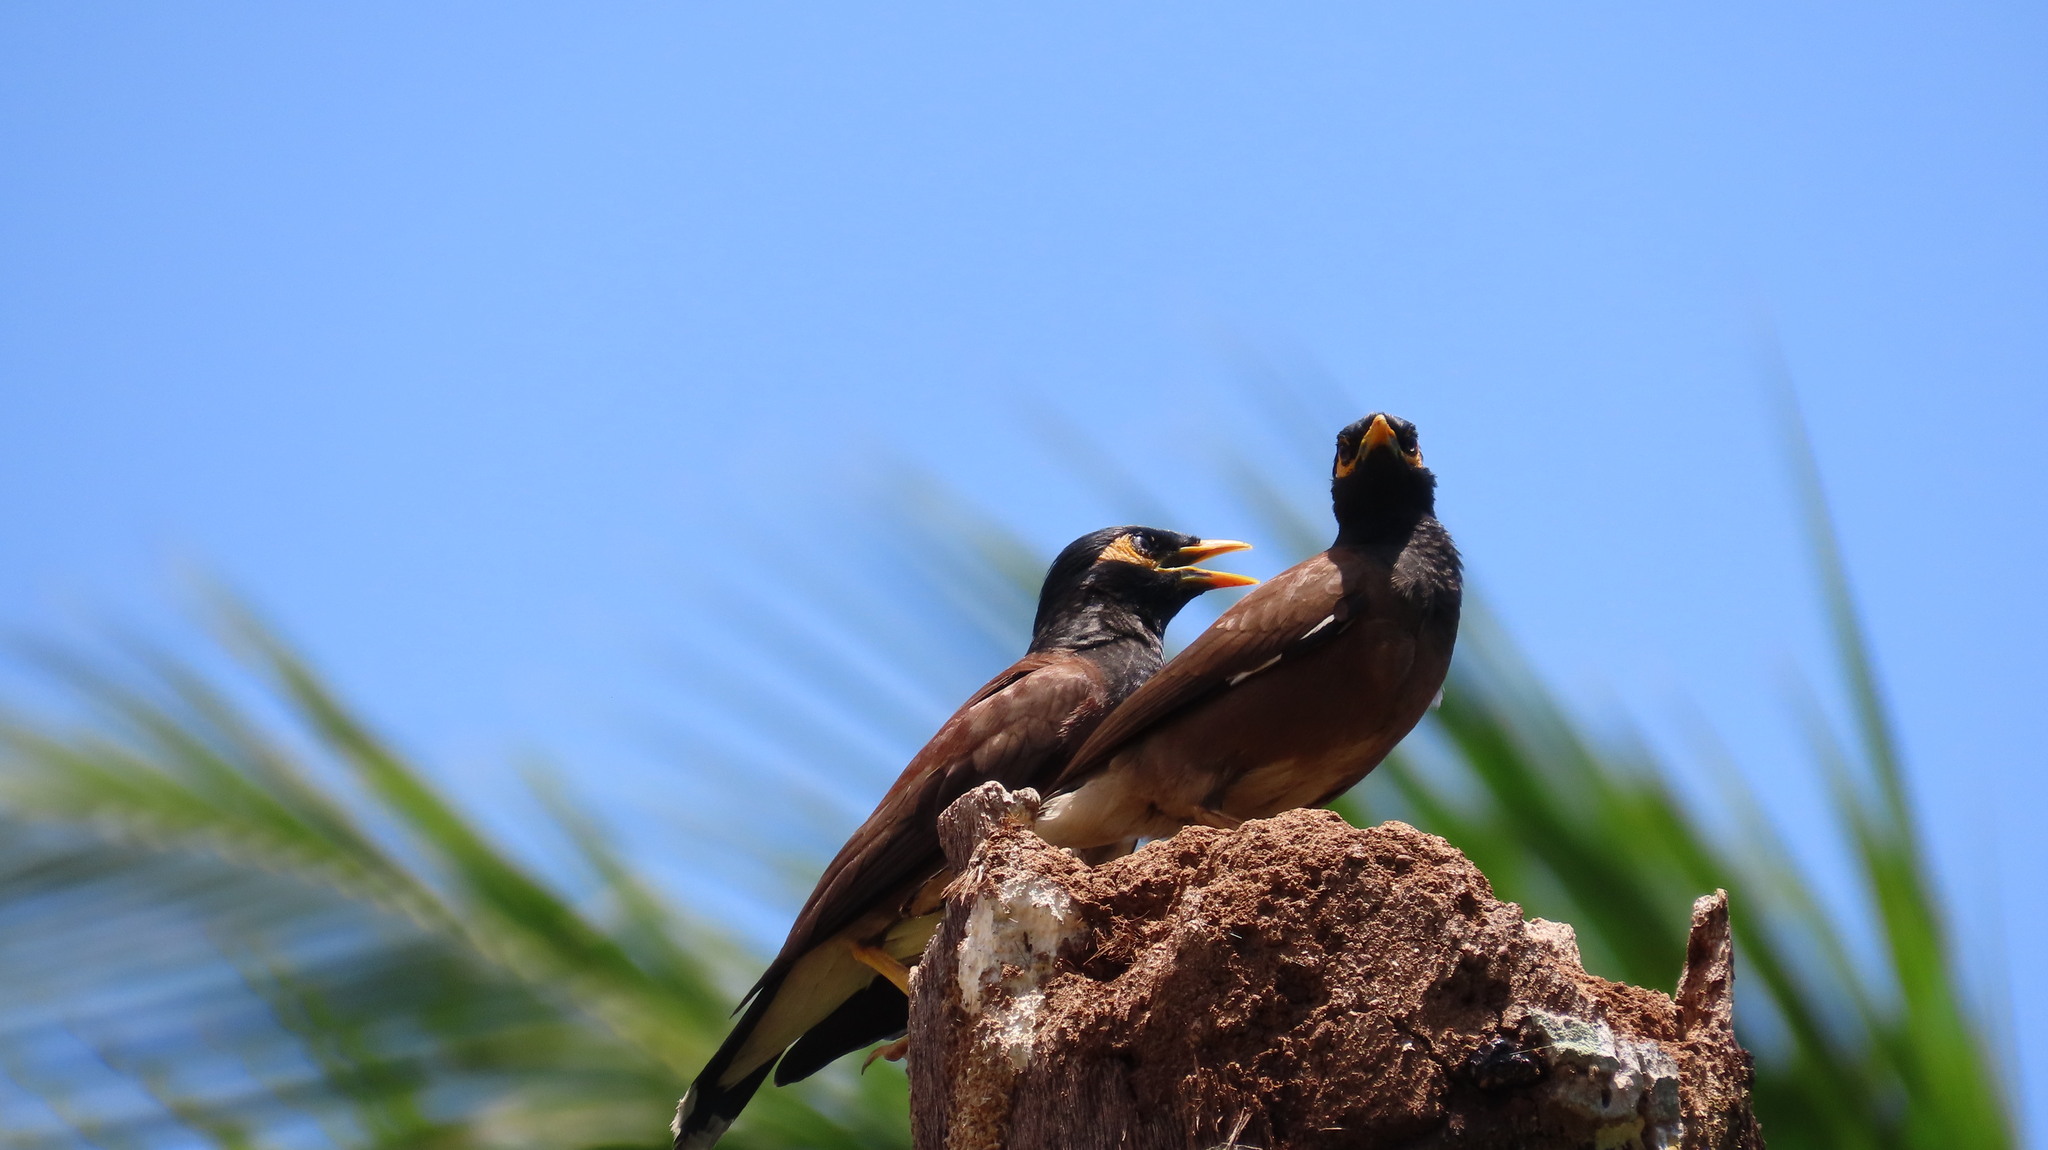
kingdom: Animalia
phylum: Chordata
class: Aves
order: Passeriformes
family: Sturnidae
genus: Acridotheres
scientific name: Acridotheres tristis
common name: Common myna
